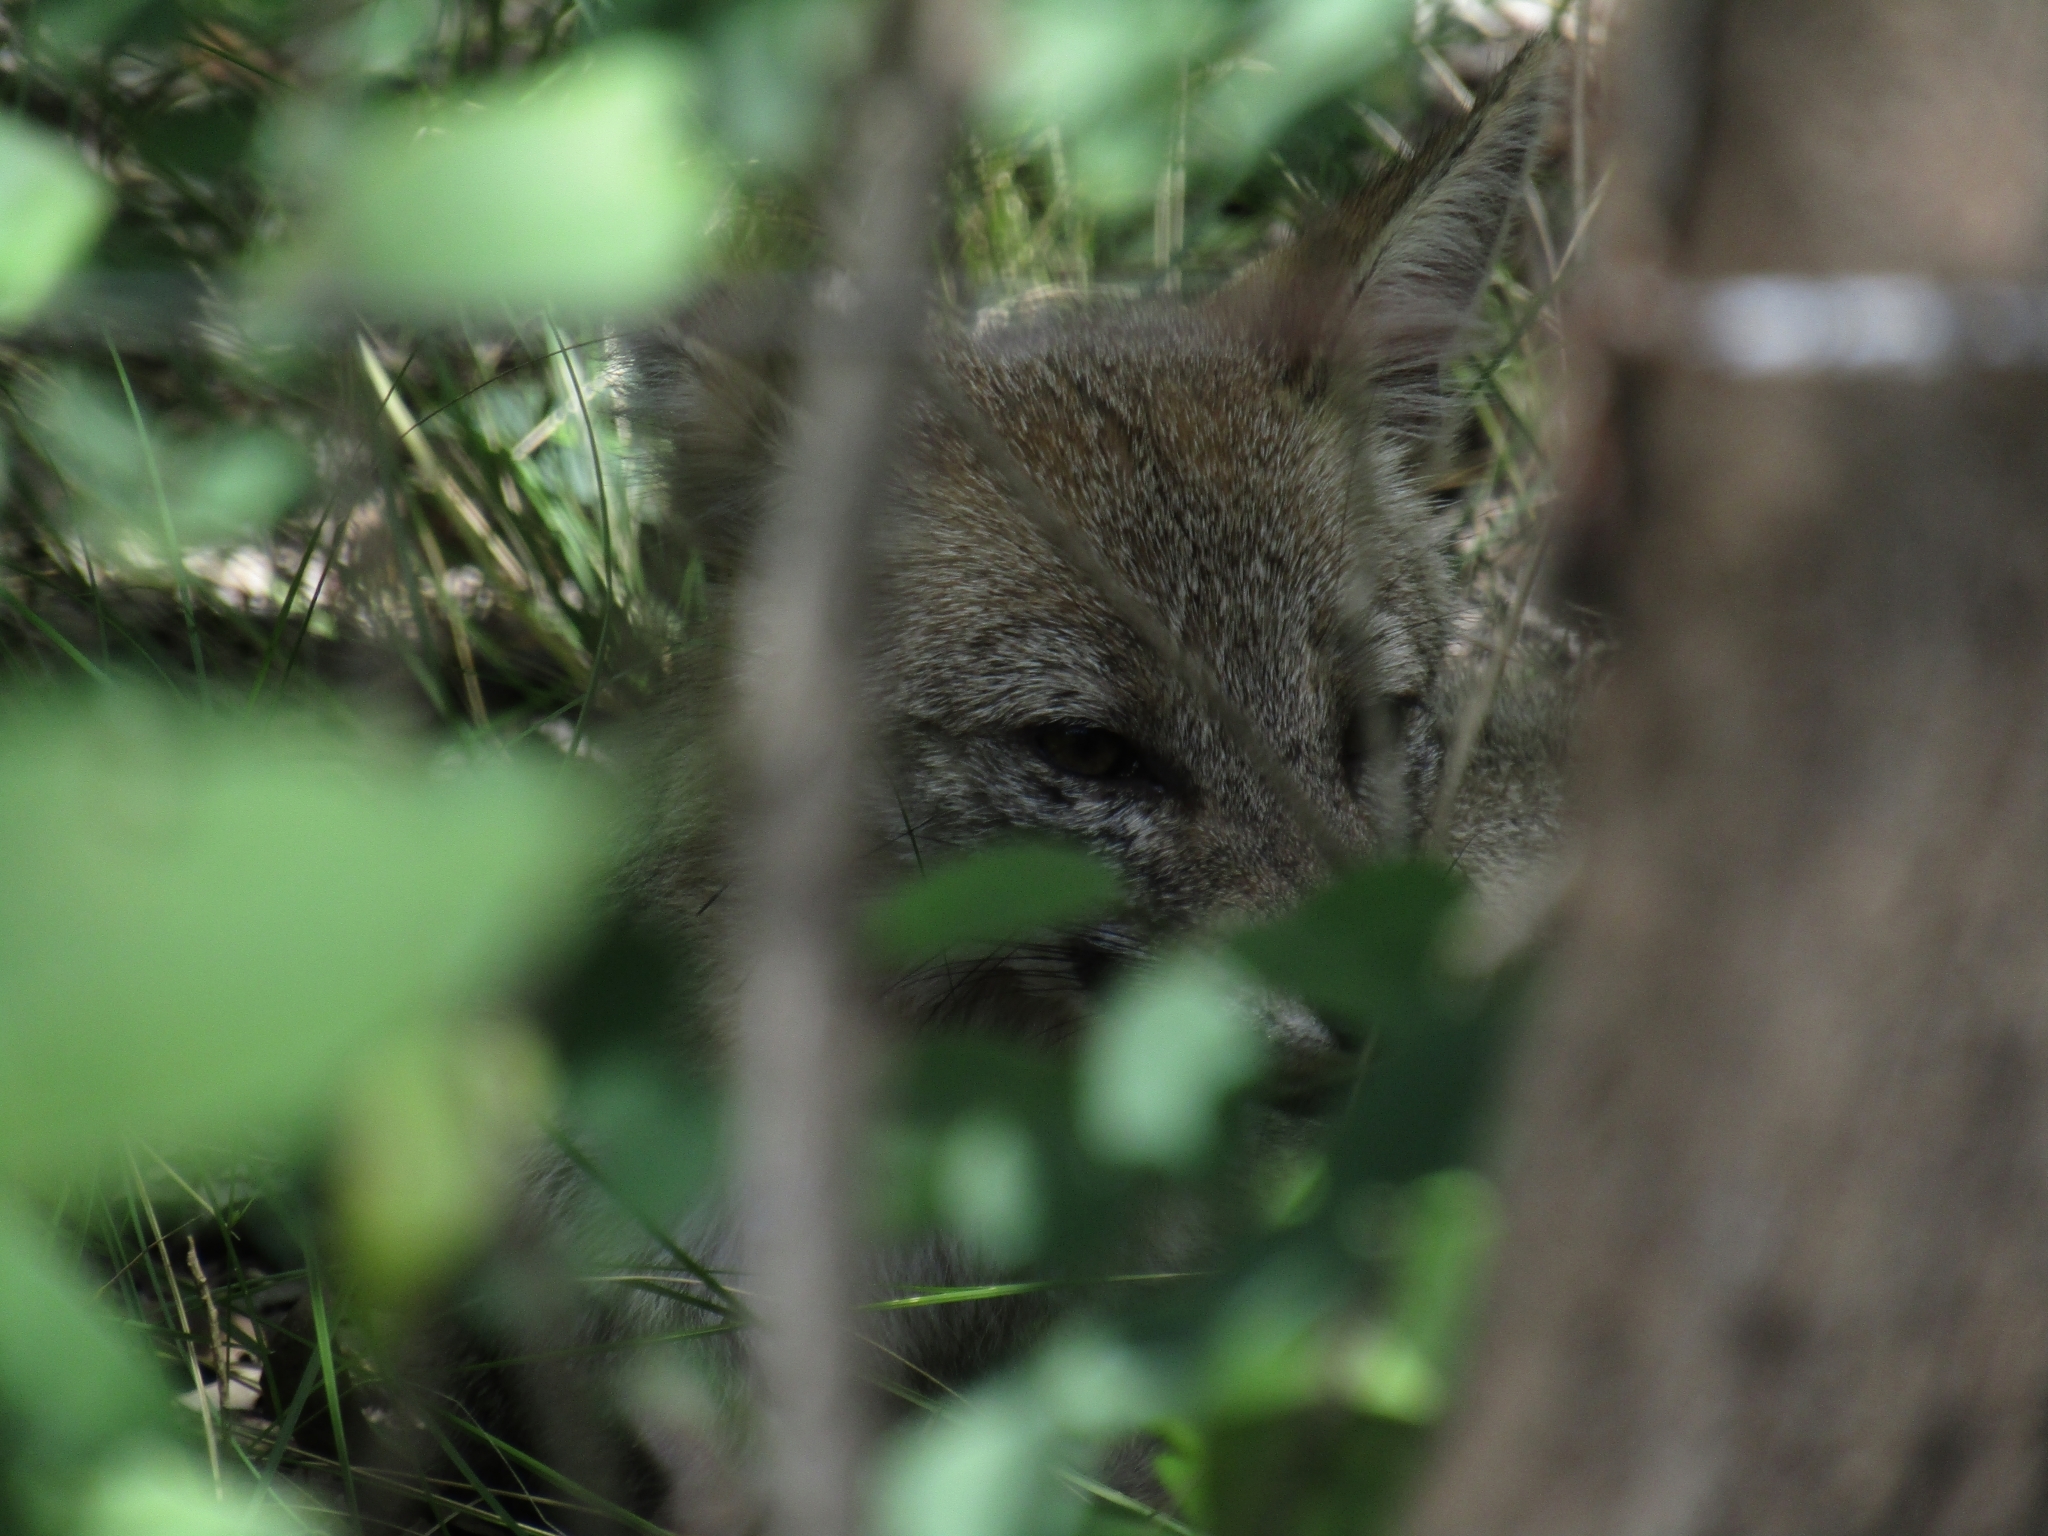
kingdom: Animalia
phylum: Chordata
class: Mammalia
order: Carnivora
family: Canidae
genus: Lycalopex
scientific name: Lycalopex gymnocercus
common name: Pampas fox
